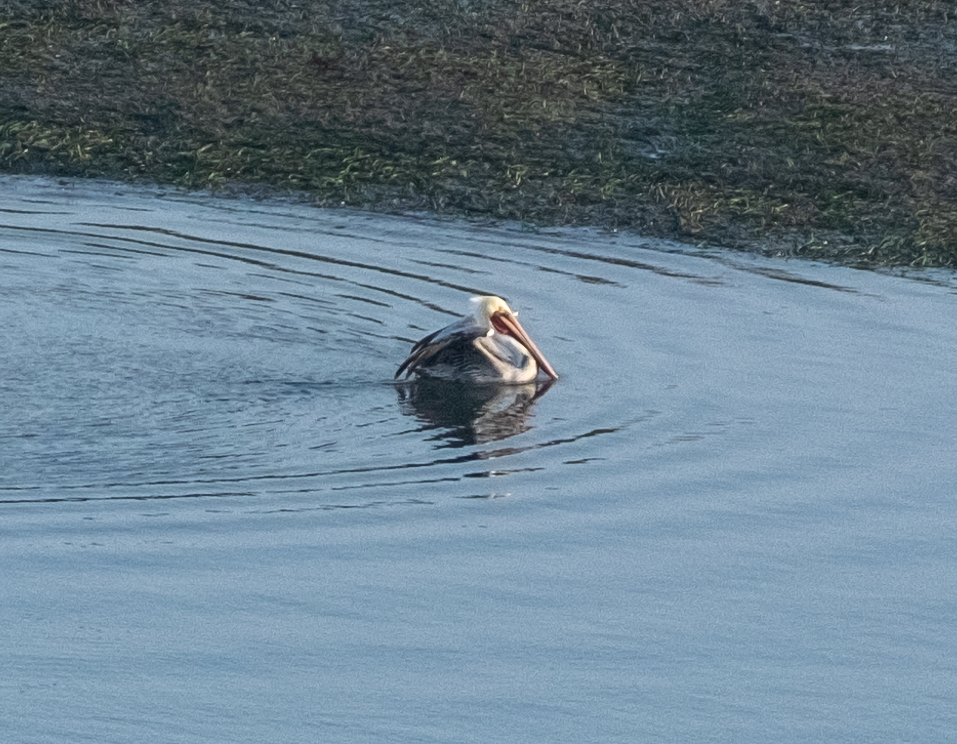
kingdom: Animalia
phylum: Chordata
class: Aves
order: Pelecaniformes
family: Pelecanidae
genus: Pelecanus
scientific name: Pelecanus occidentalis
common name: Brown pelican
